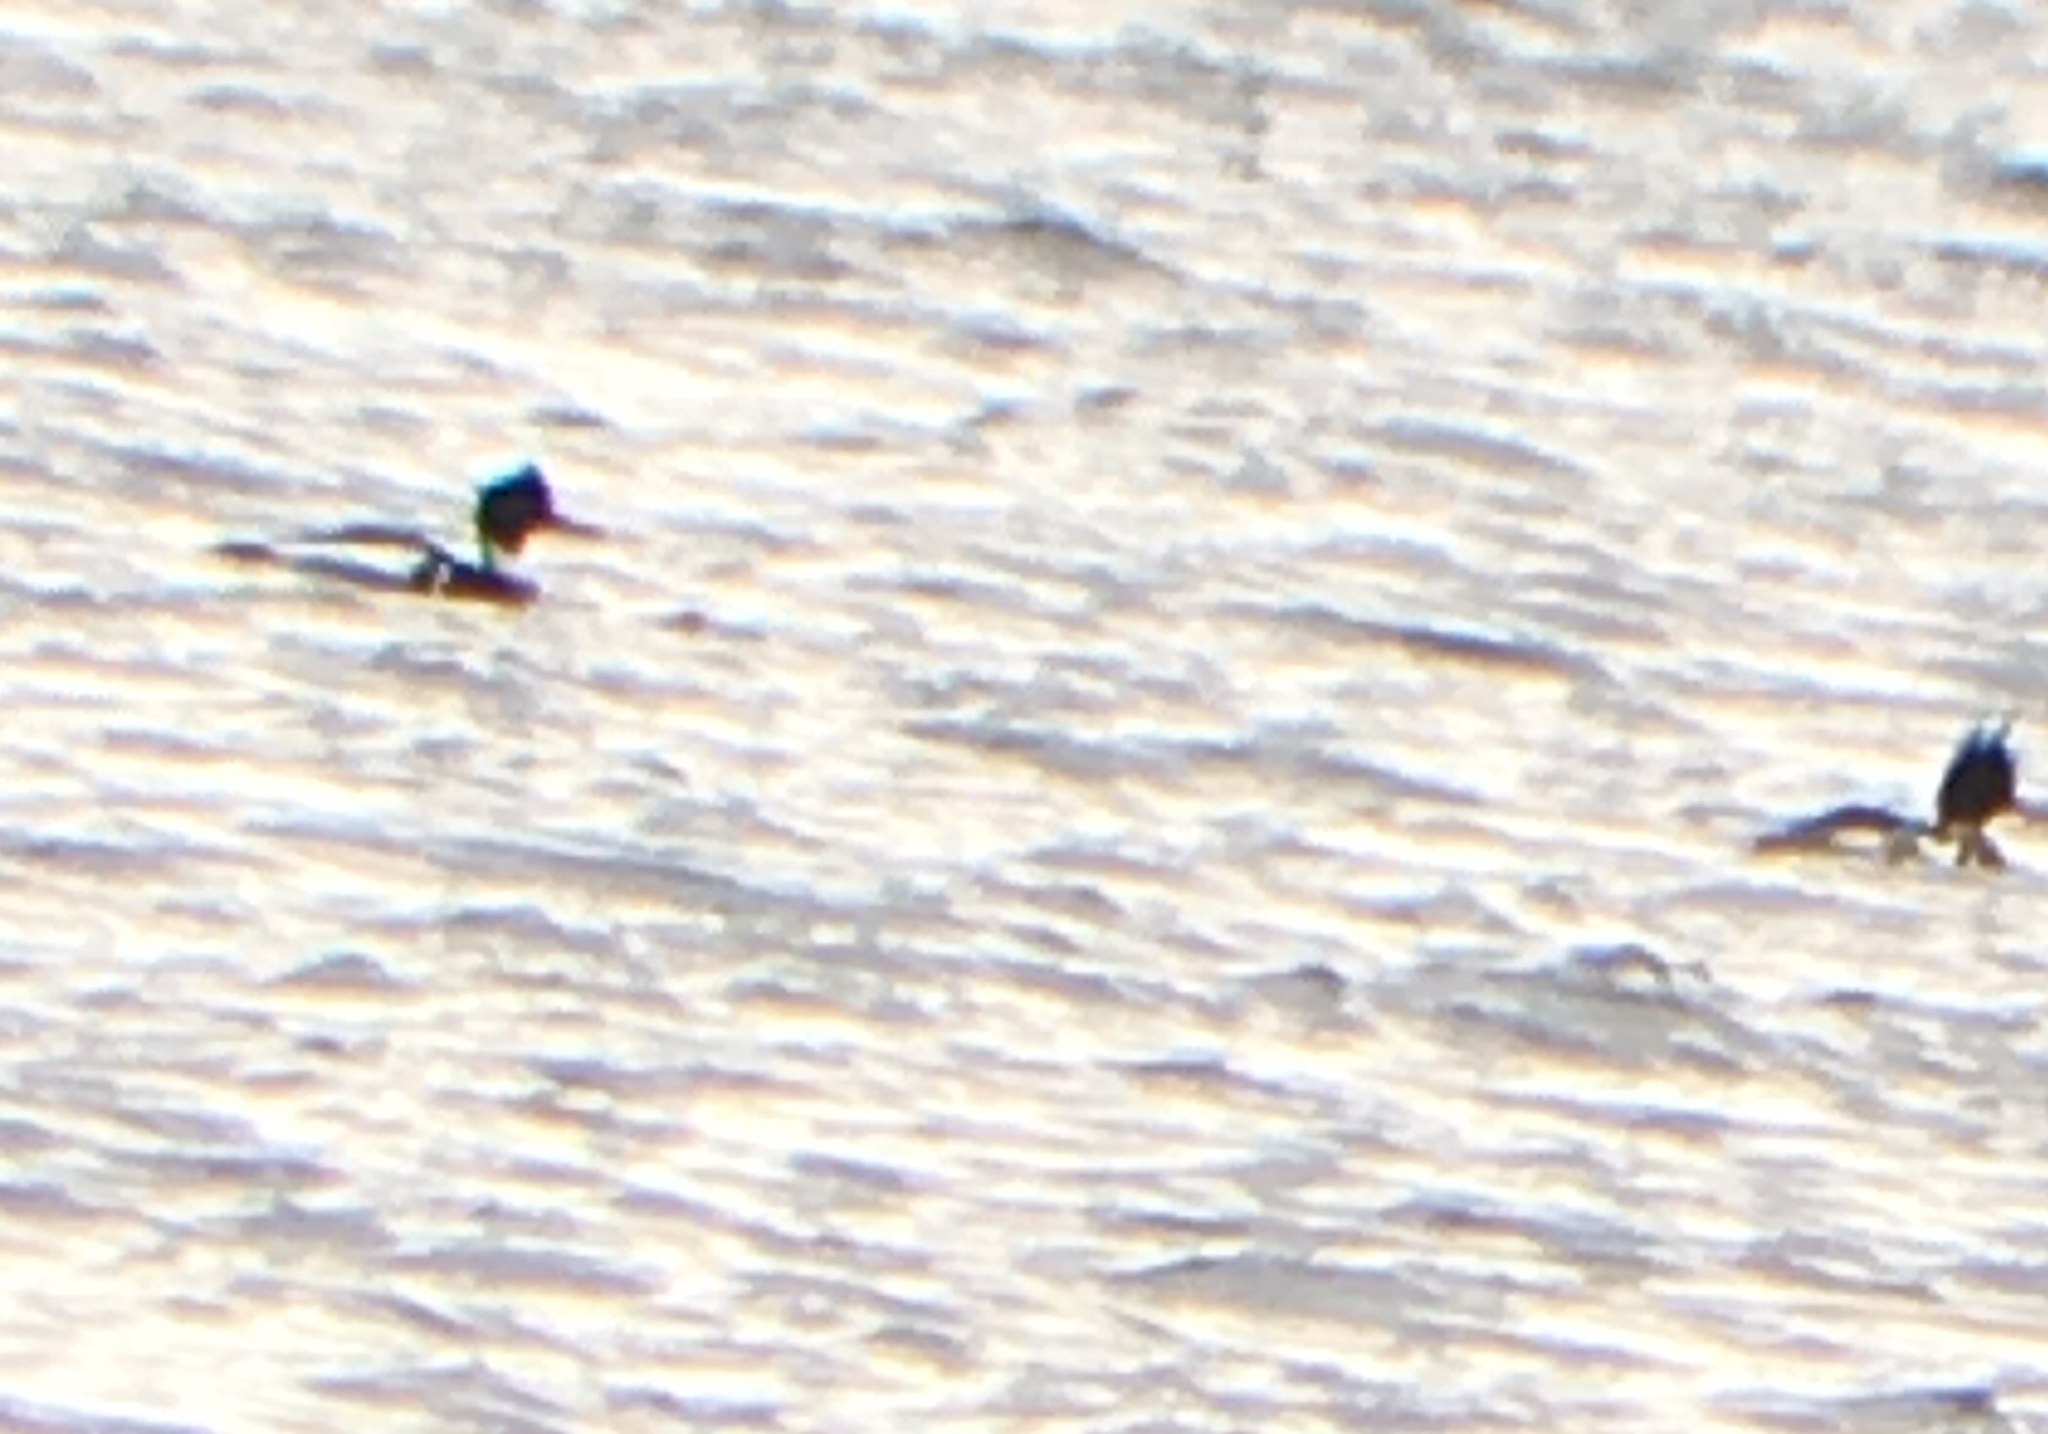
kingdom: Animalia
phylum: Chordata
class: Aves
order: Anseriformes
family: Anatidae
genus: Mergus
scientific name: Mergus serrator
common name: Red-breasted merganser
